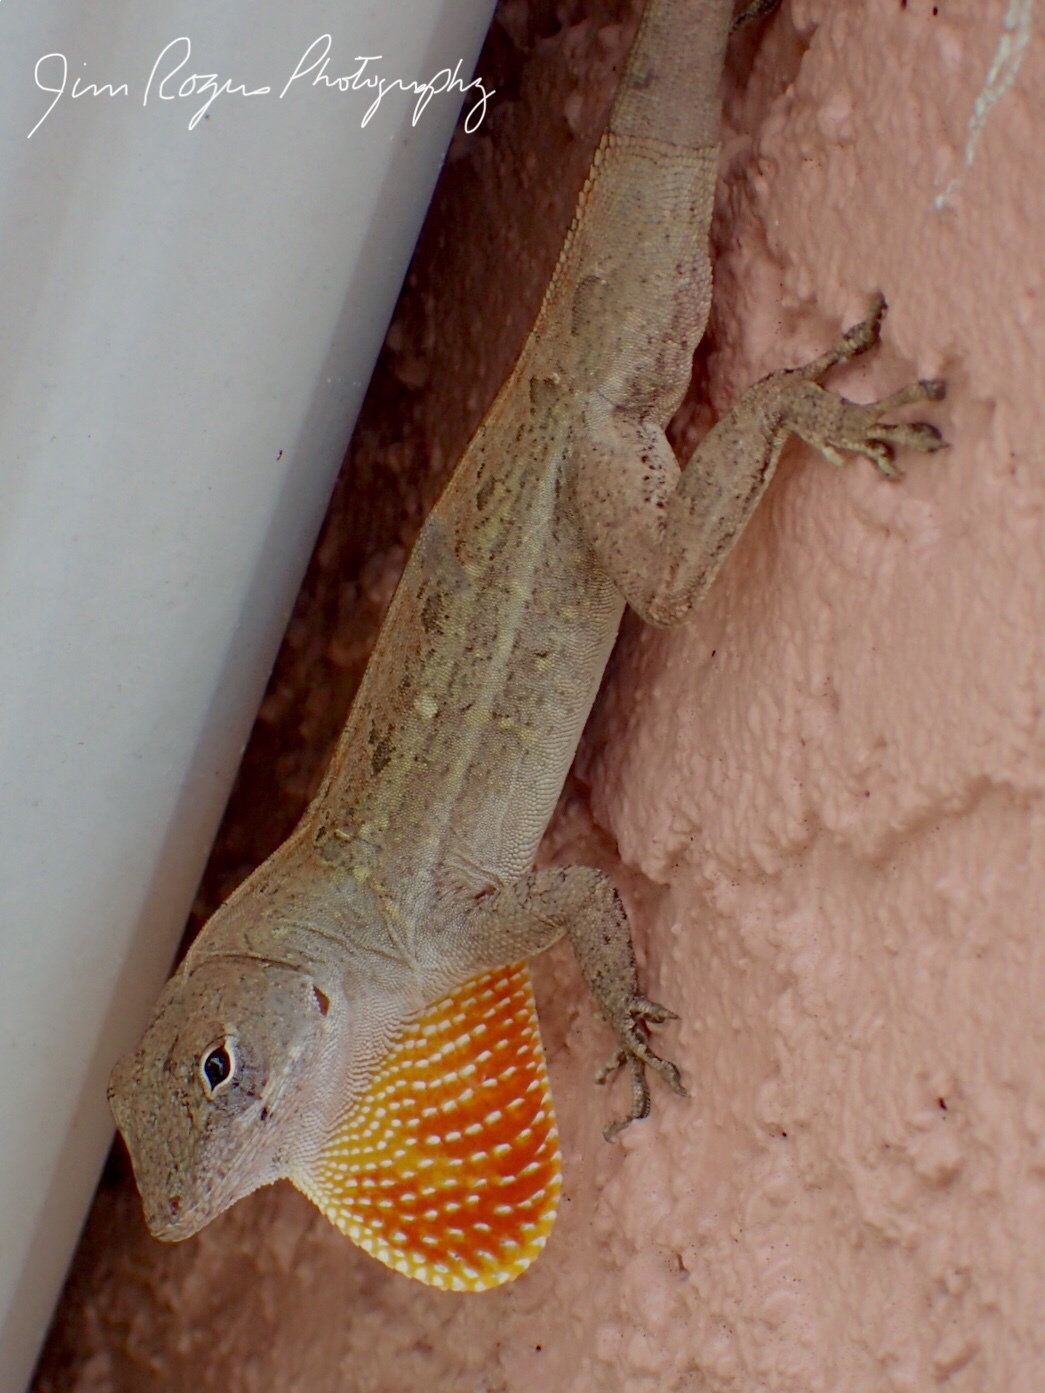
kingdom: Animalia
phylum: Chordata
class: Squamata
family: Dactyloidae
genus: Anolis
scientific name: Anolis sagrei
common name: Brown anole
